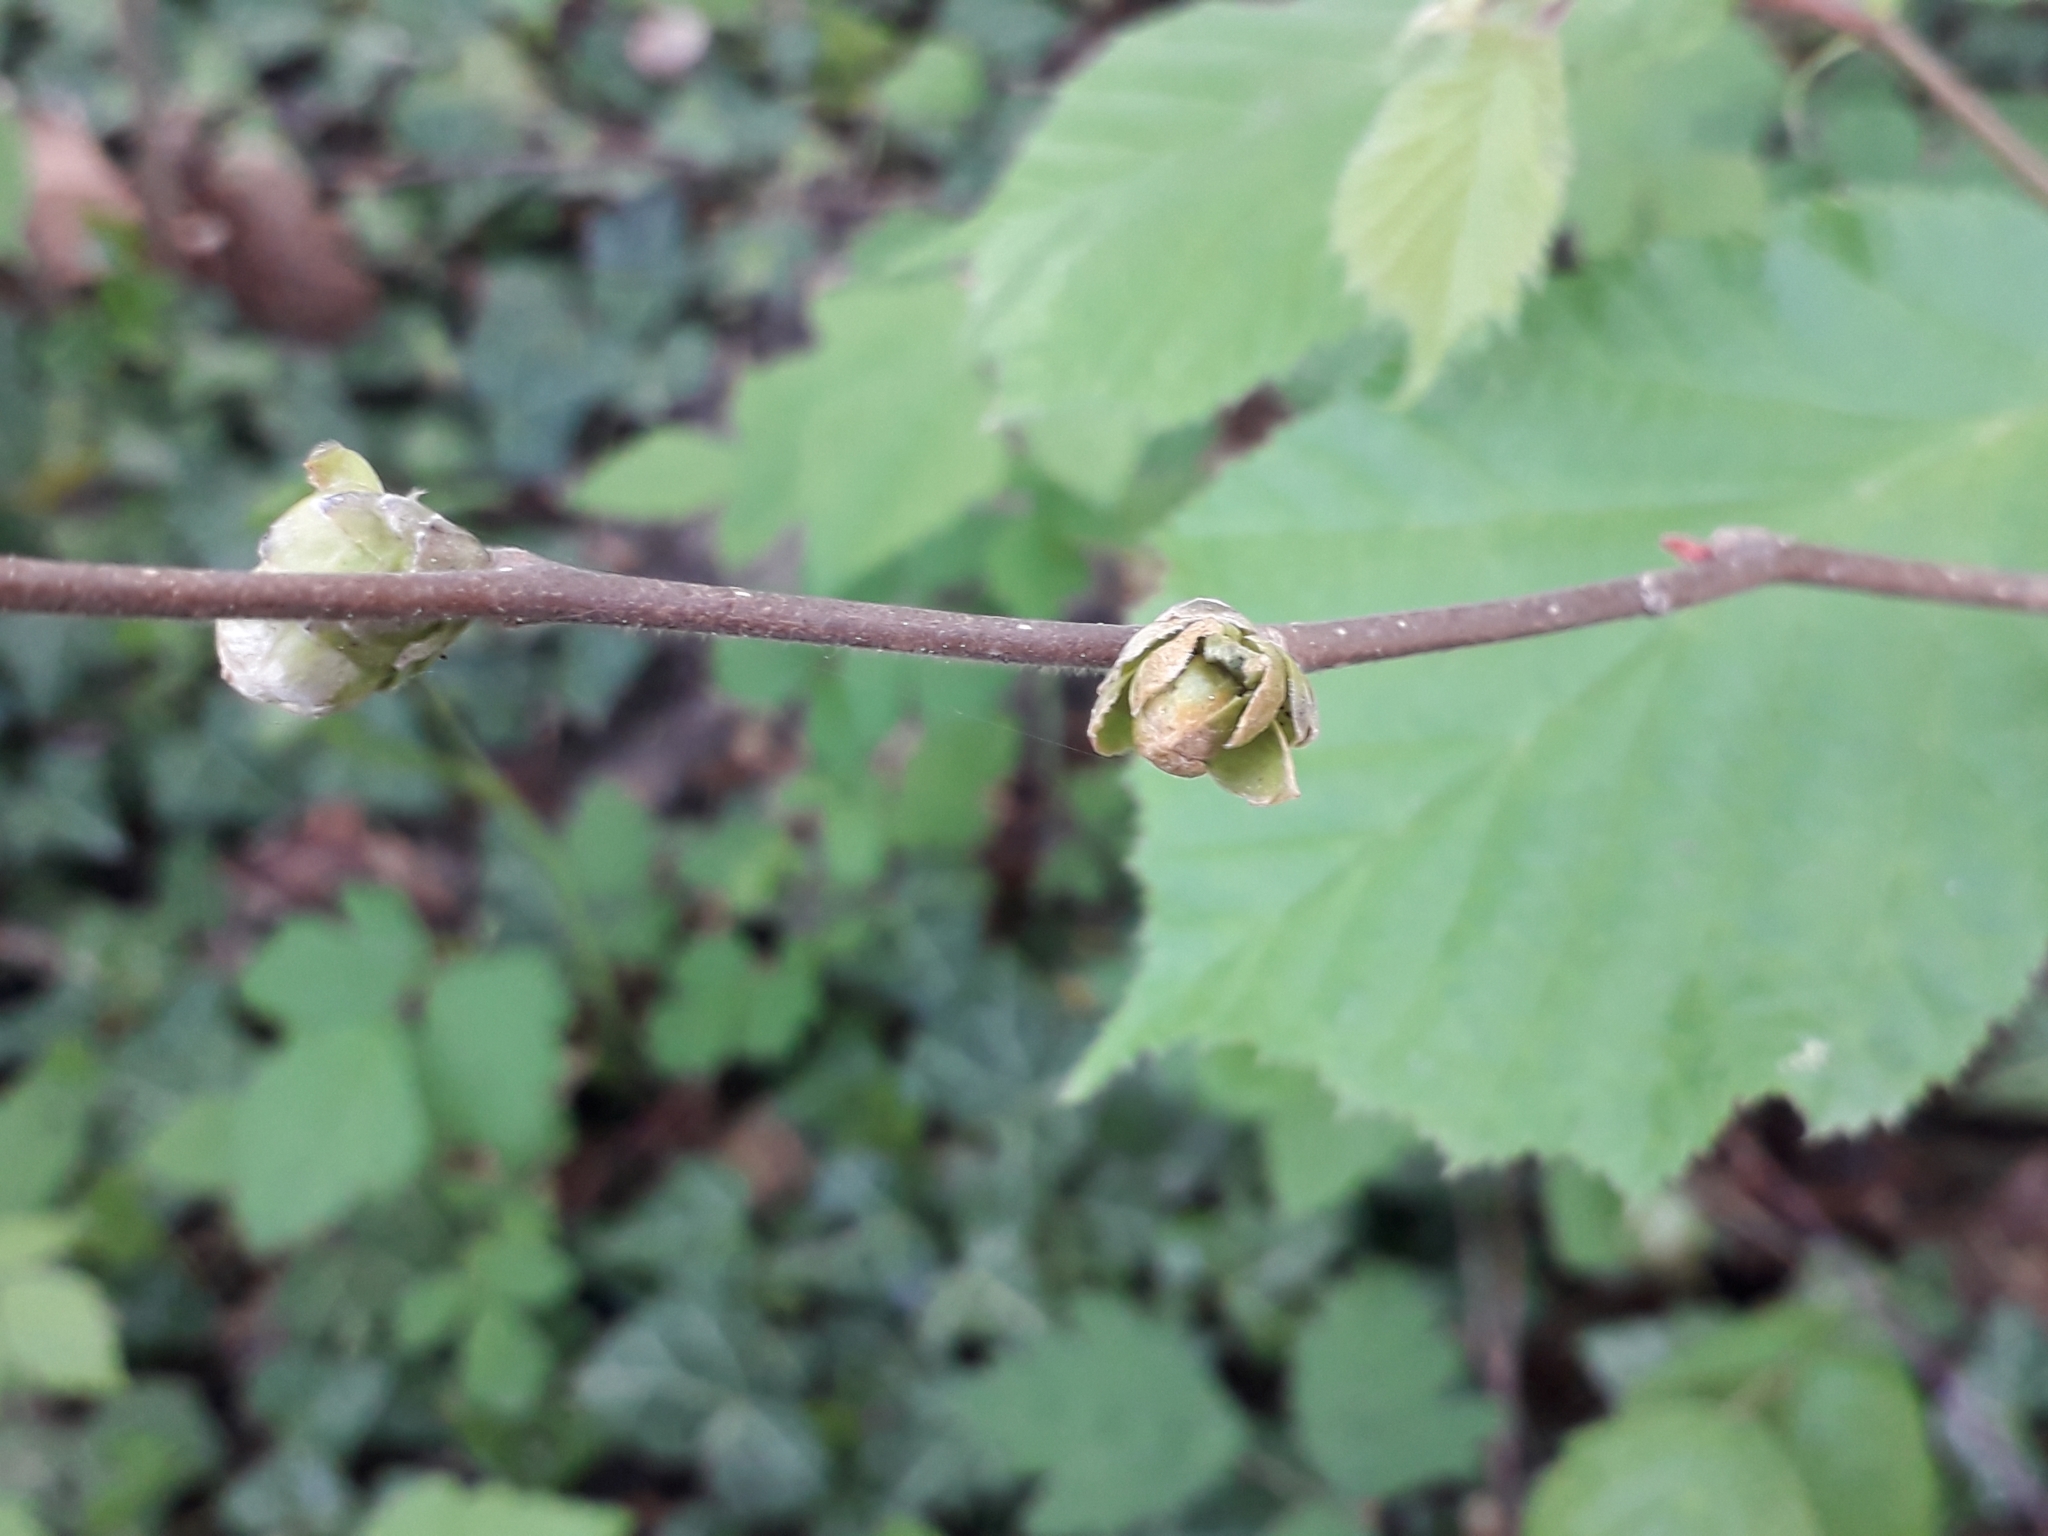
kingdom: Plantae
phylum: Tracheophyta
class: Magnoliopsida
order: Fagales
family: Betulaceae
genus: Corylus
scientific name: Corylus avellana
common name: European hazel
